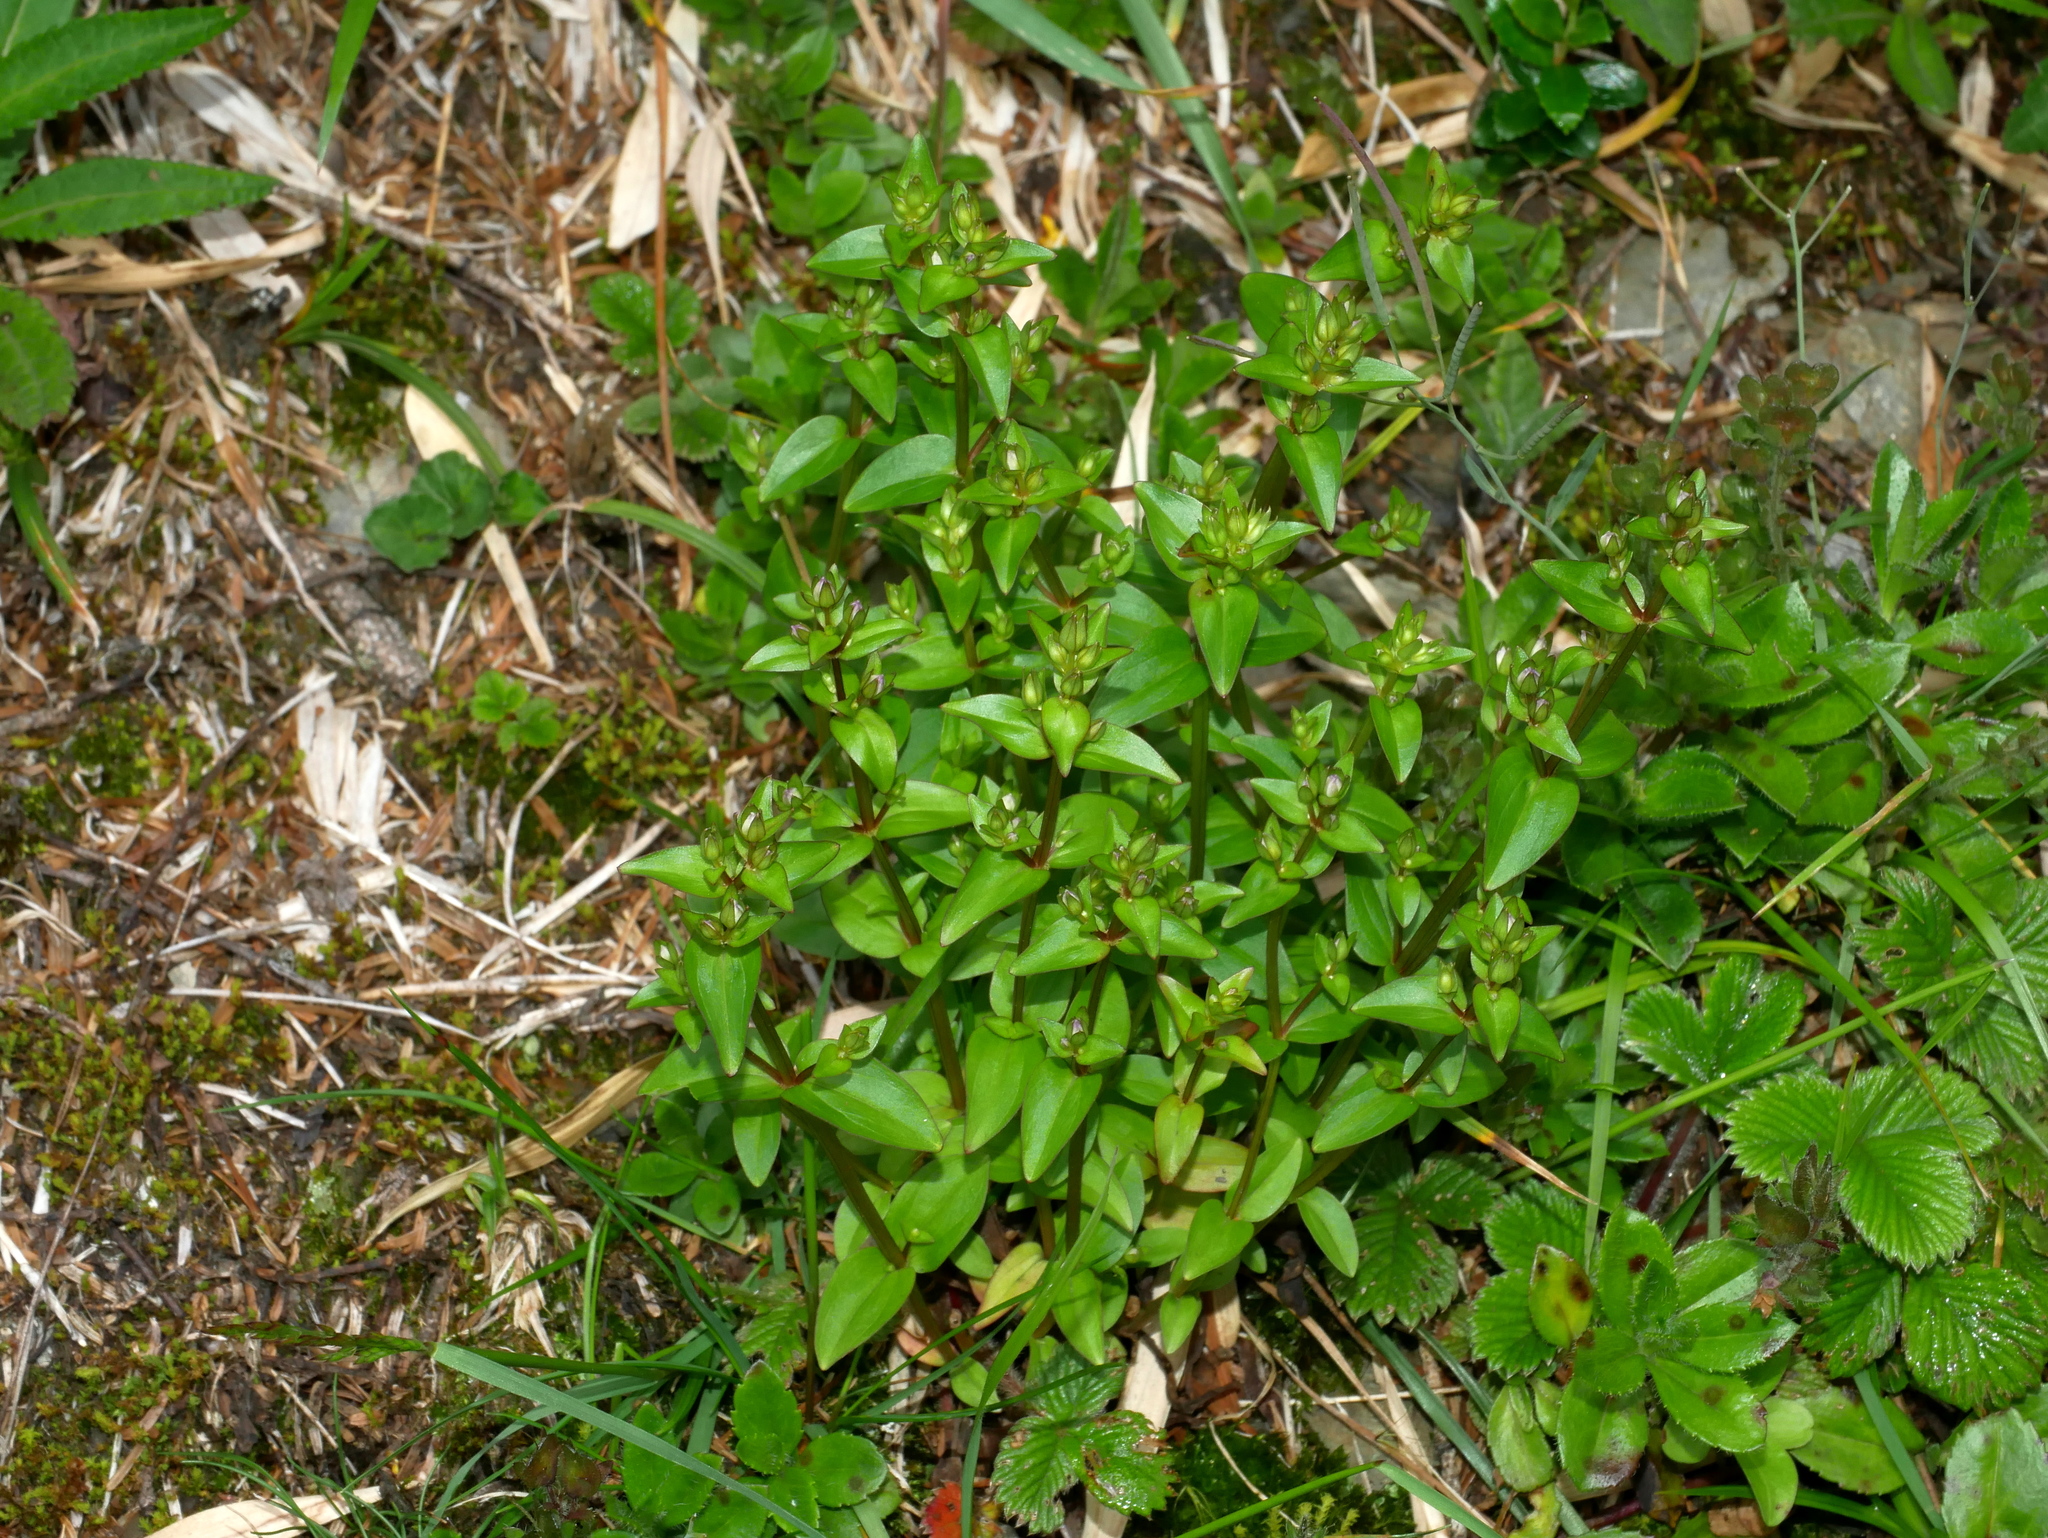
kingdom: Plantae
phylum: Tracheophyta
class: Magnoliopsida
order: Gentianales
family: Gentianaceae
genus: Swertia
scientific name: Swertia macrosperma
